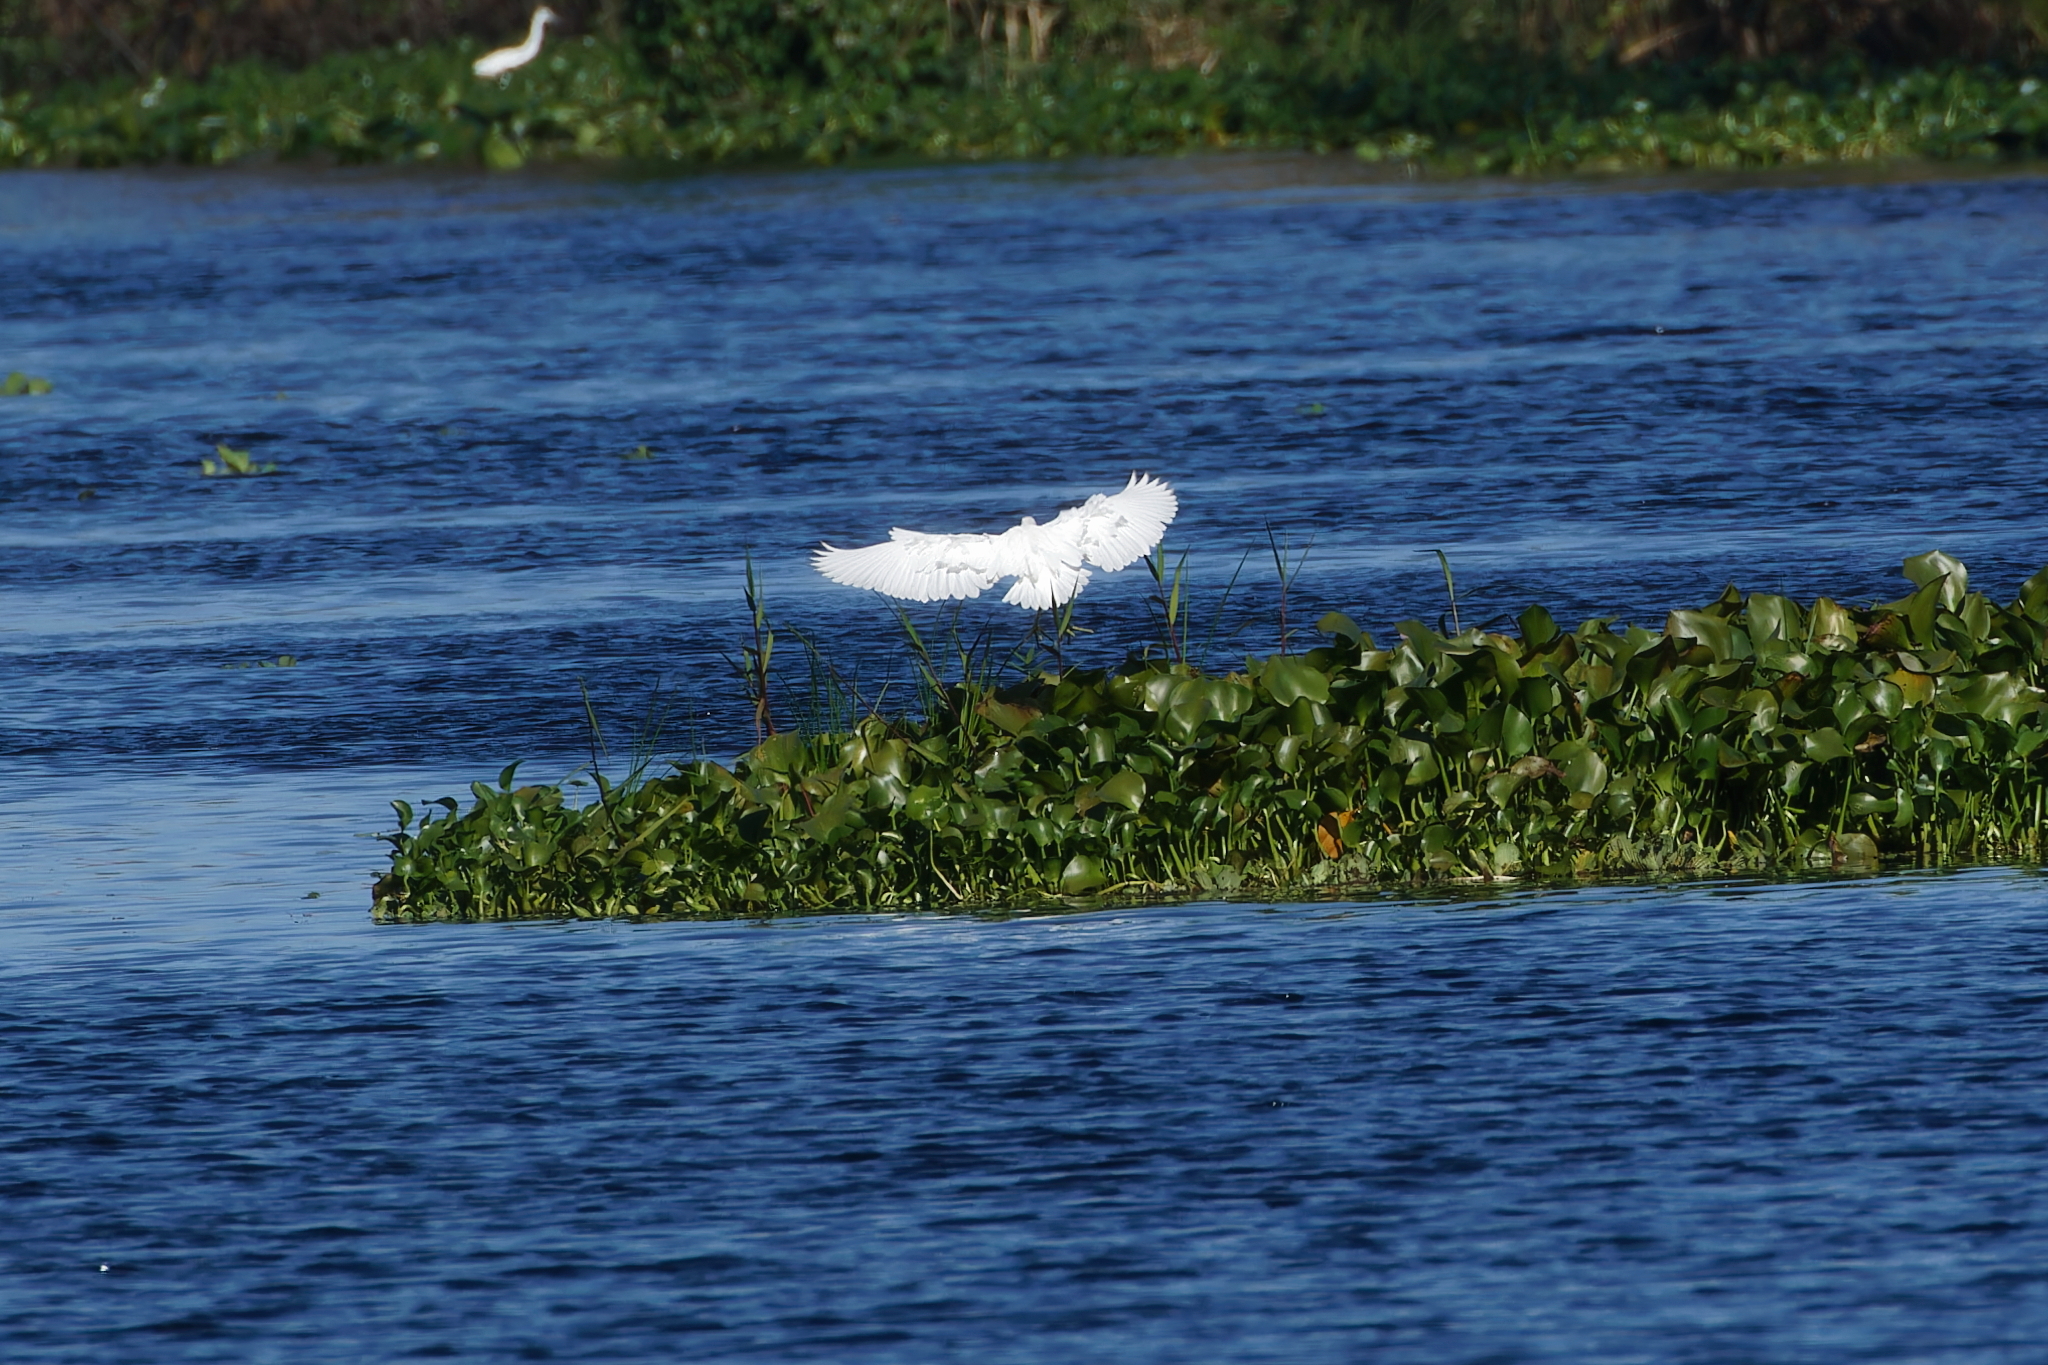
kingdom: Animalia
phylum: Chordata
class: Aves
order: Pelecaniformes
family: Ardeidae
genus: Egretta
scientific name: Egretta caerulea
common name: Little blue heron
